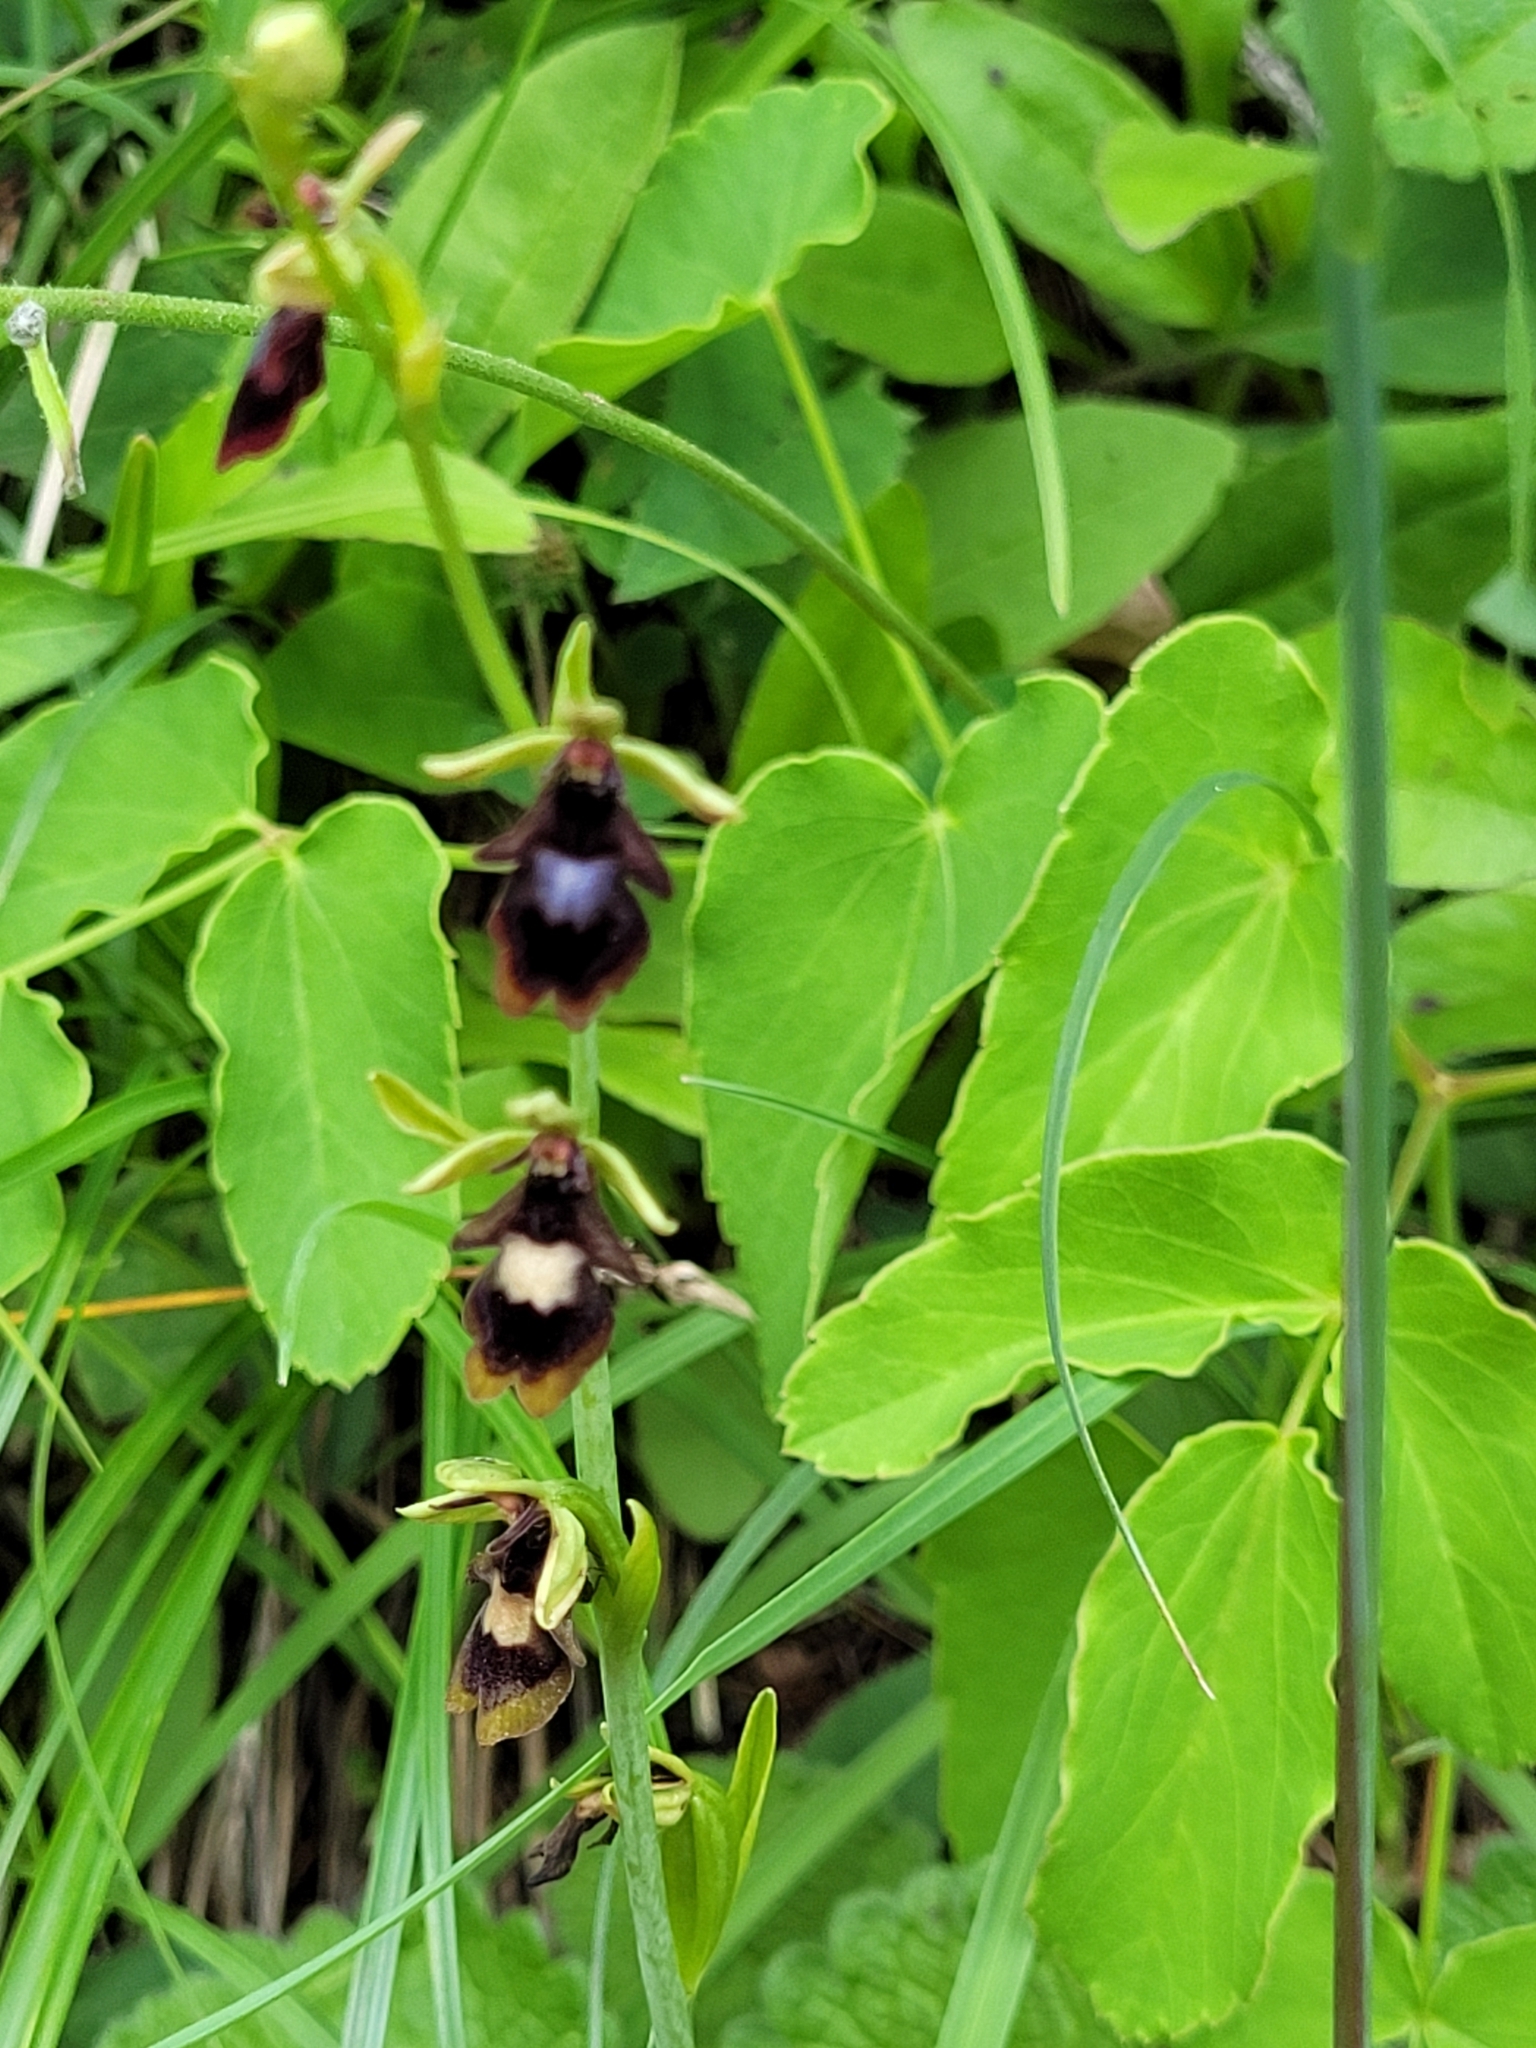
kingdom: Plantae
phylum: Tracheophyta
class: Liliopsida
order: Asparagales
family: Orchidaceae
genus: Ophrys
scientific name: Ophrys insectifera
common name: Fly orchid
